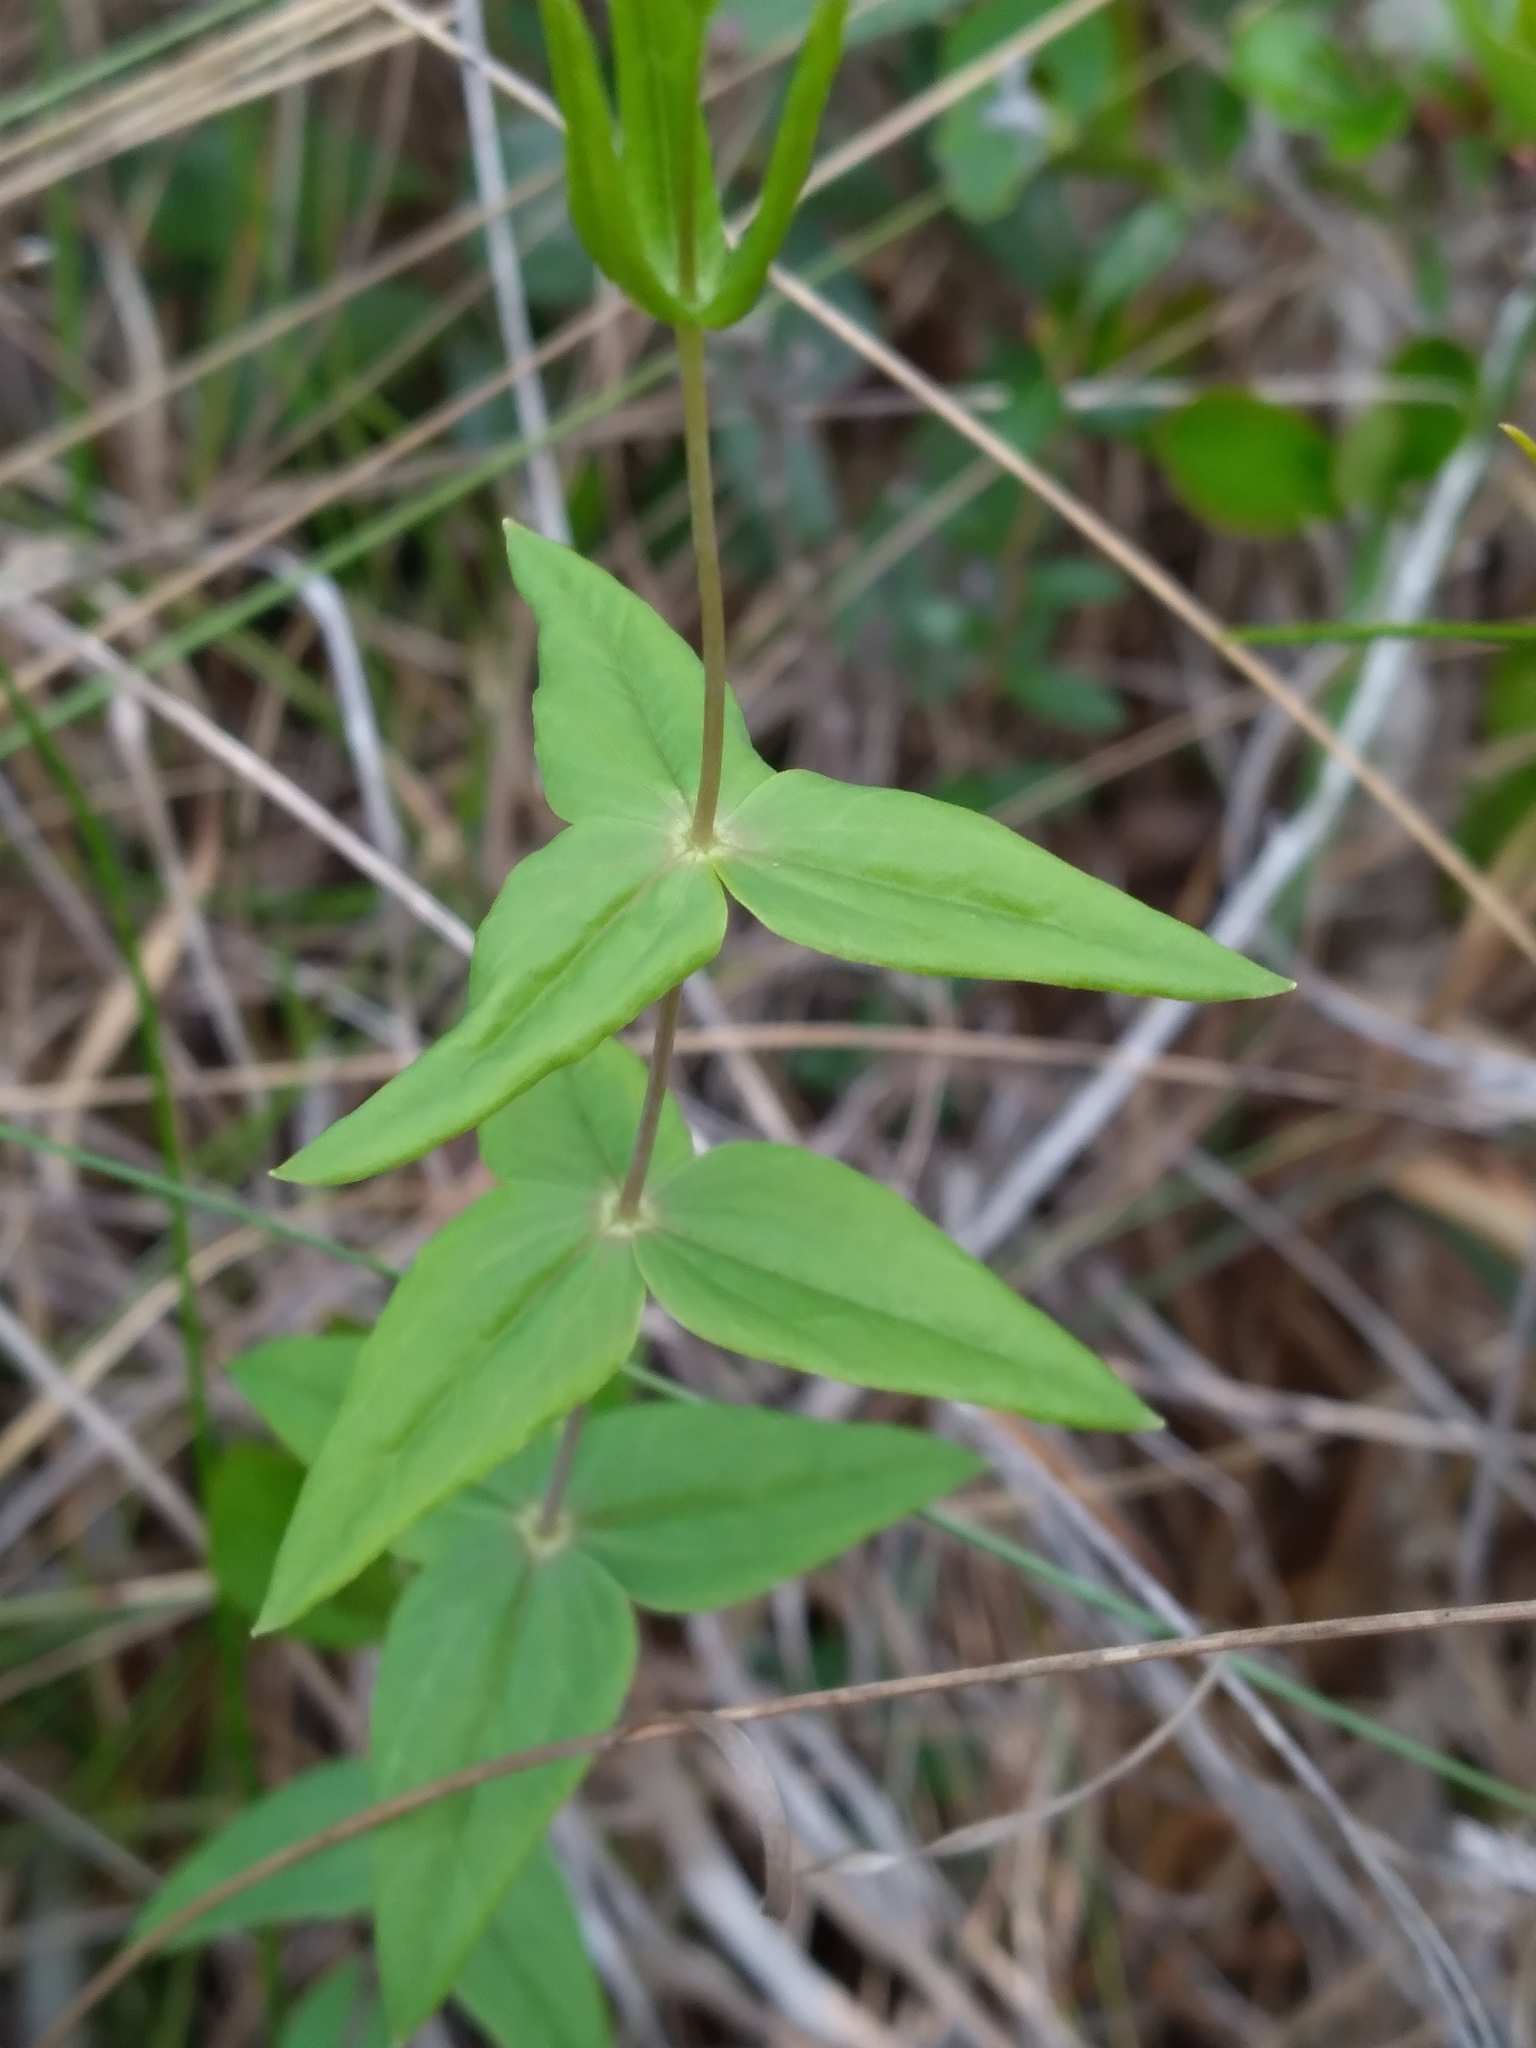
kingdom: Plantae
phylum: Tracheophyta
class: Magnoliopsida
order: Ericales
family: Primulaceae
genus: Lysimachia
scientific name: Lysimachia asperulifolia
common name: Rough-leaf loosestrife
